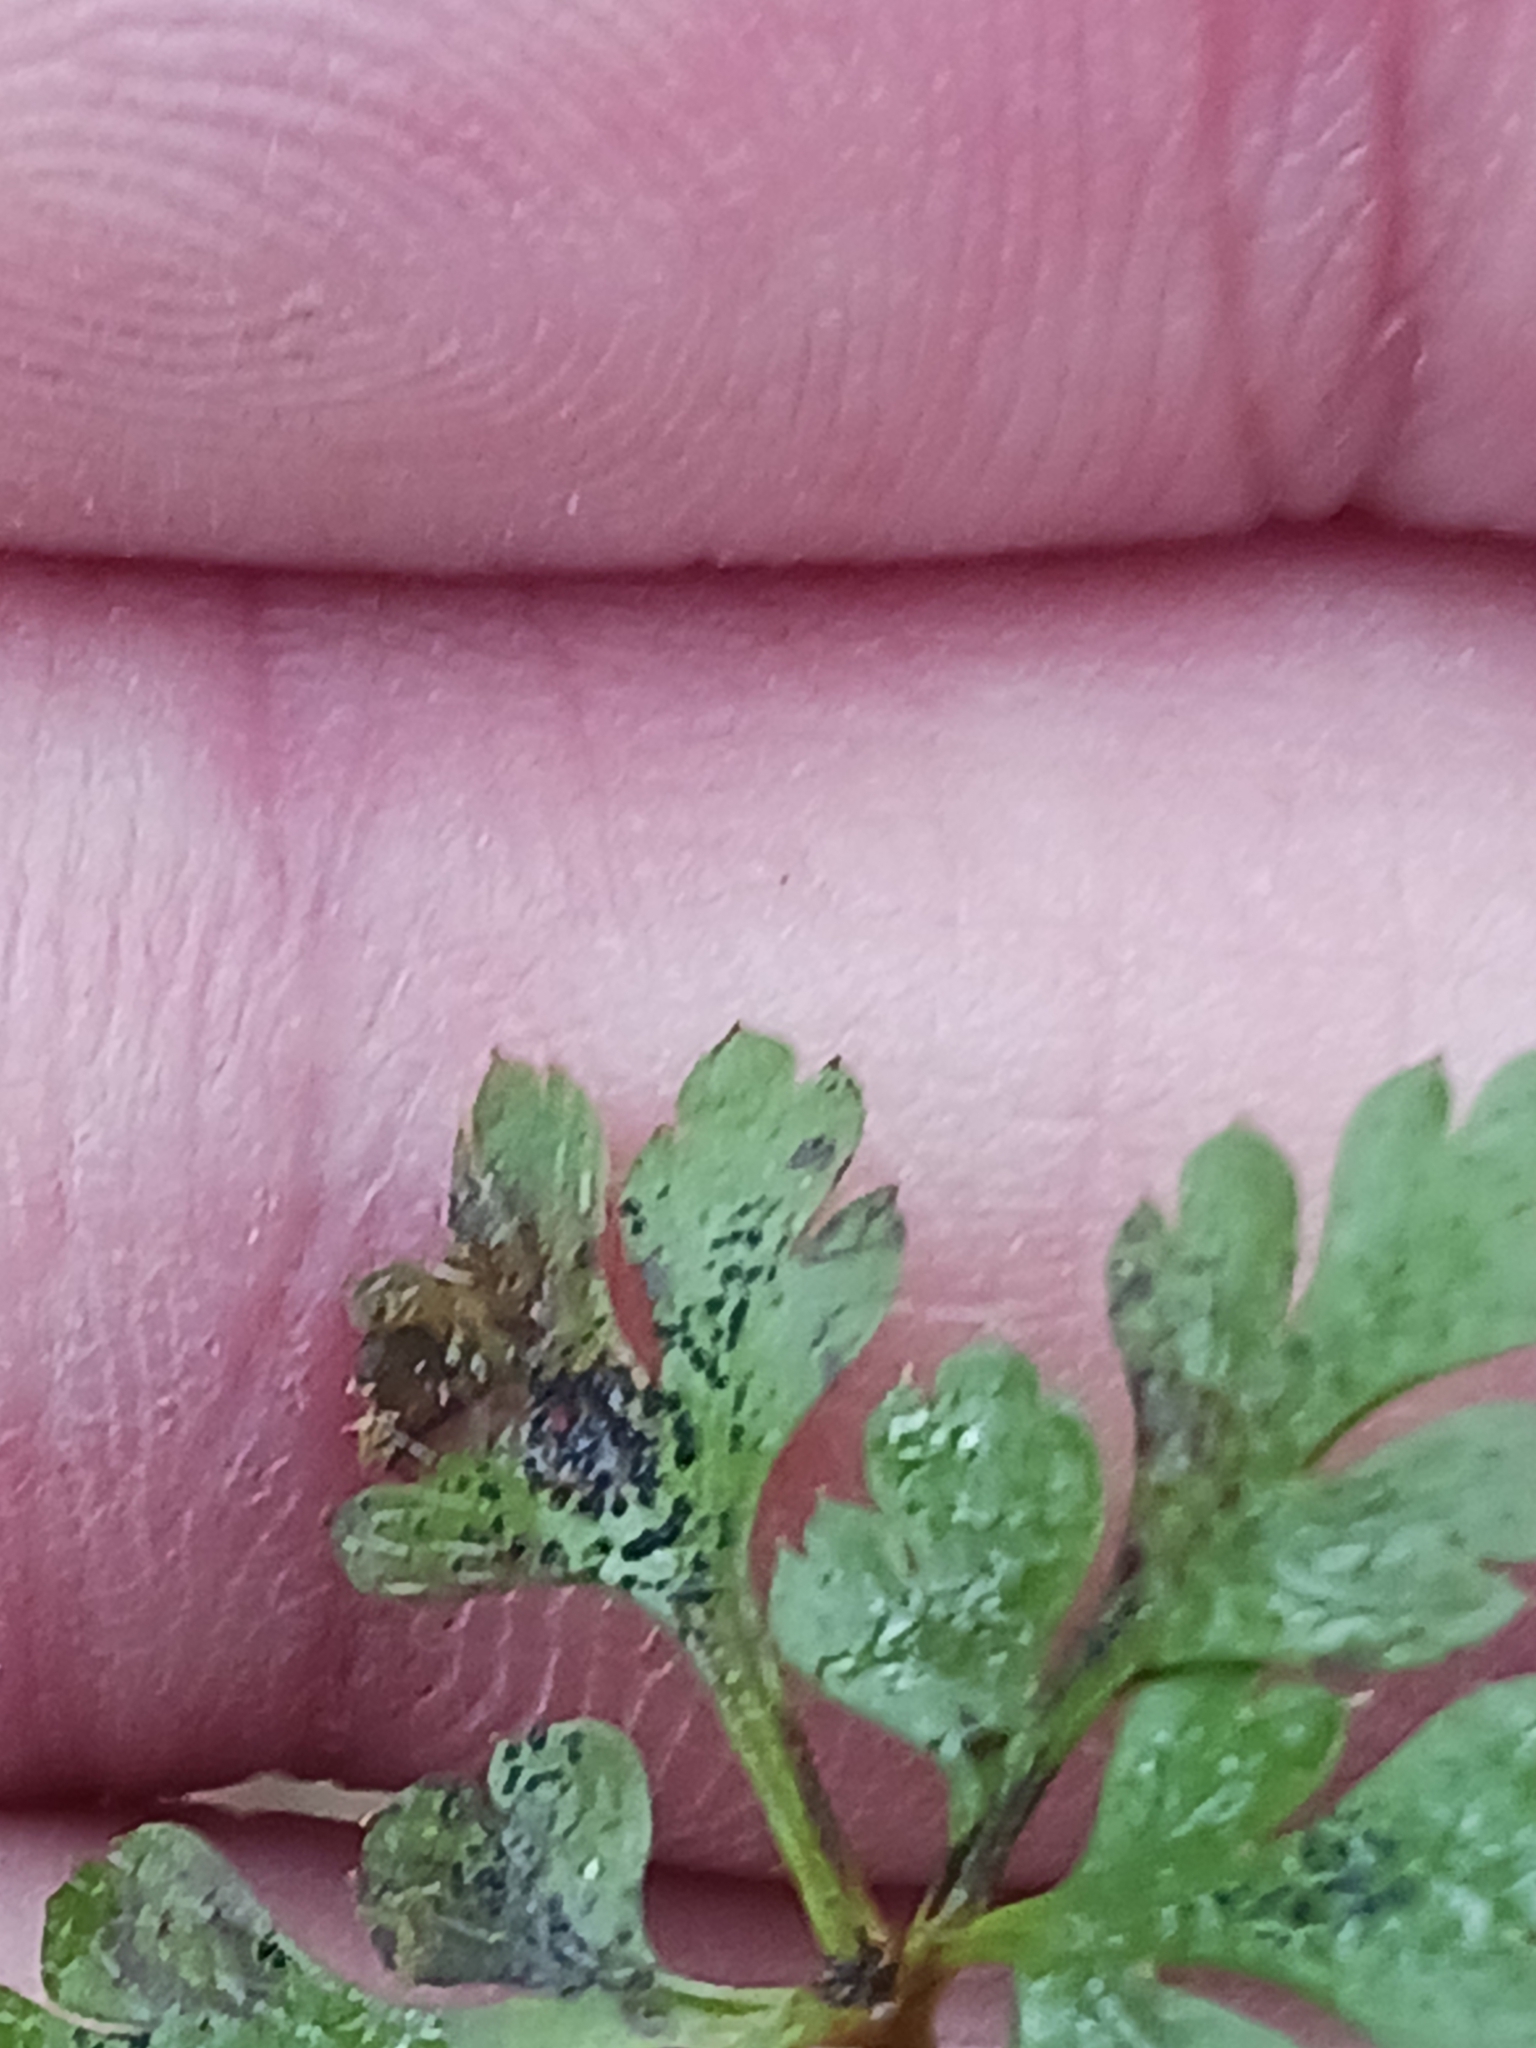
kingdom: Fungi
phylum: Ascomycota
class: Dothideomycetes
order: Venturiales
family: Venturiaceae
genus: Coleroa
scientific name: Coleroa robertiani
